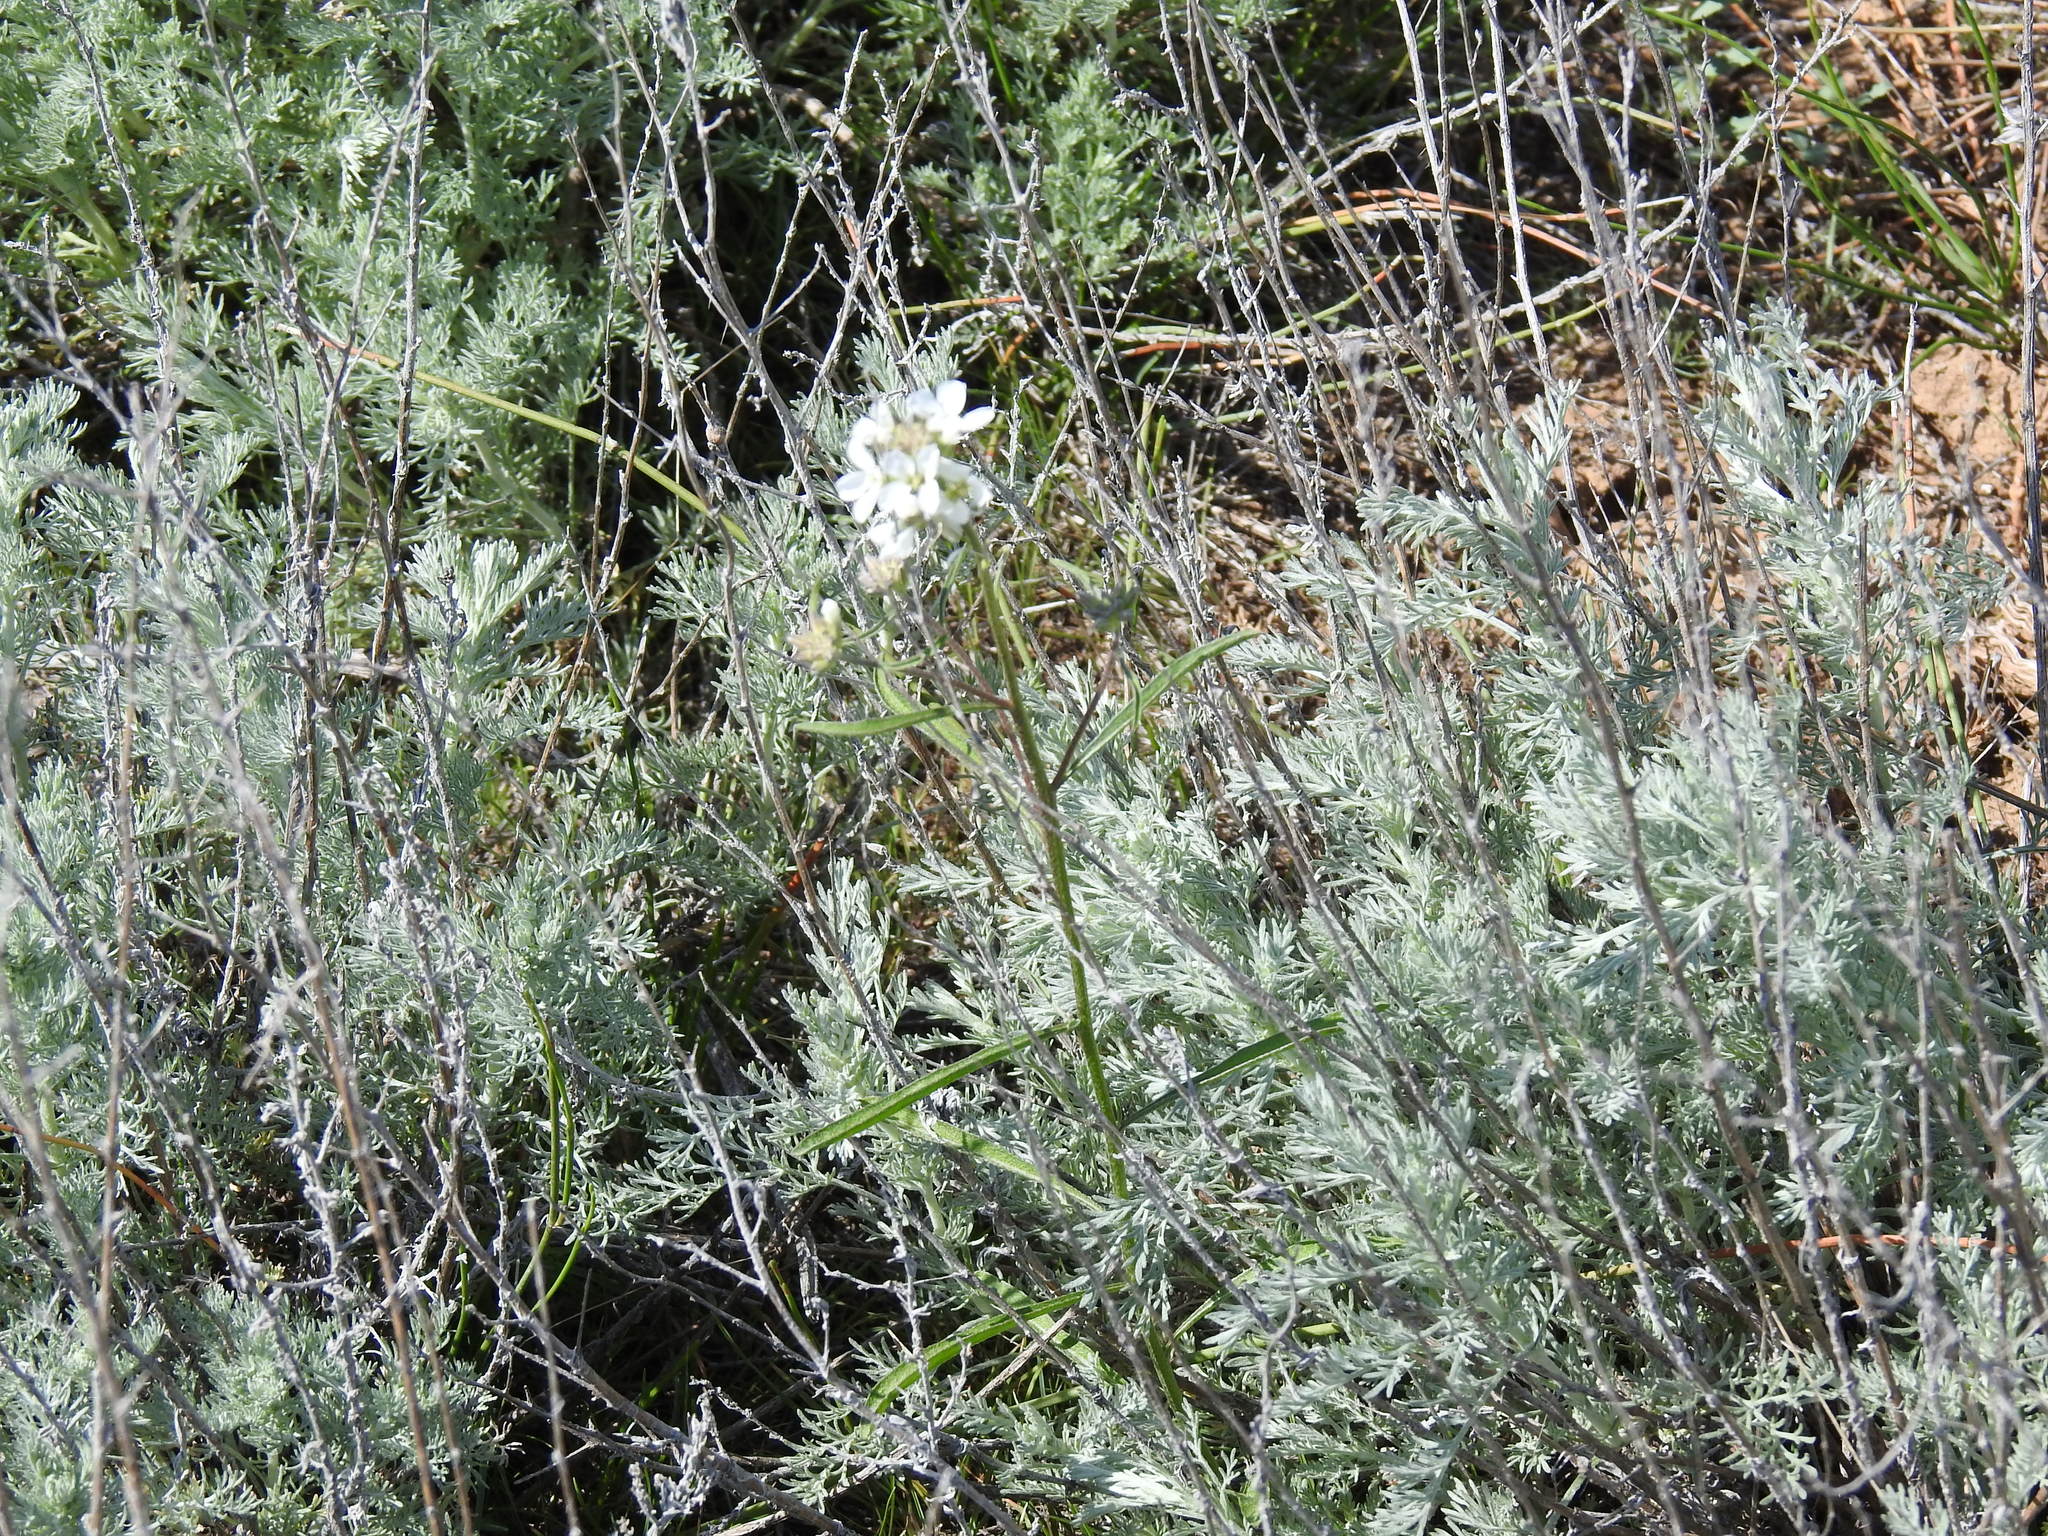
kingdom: Plantae
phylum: Tracheophyta
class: Magnoliopsida
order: Brassicales
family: Brassicaceae
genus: Erysimum
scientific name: Erysimum leucanthemum
